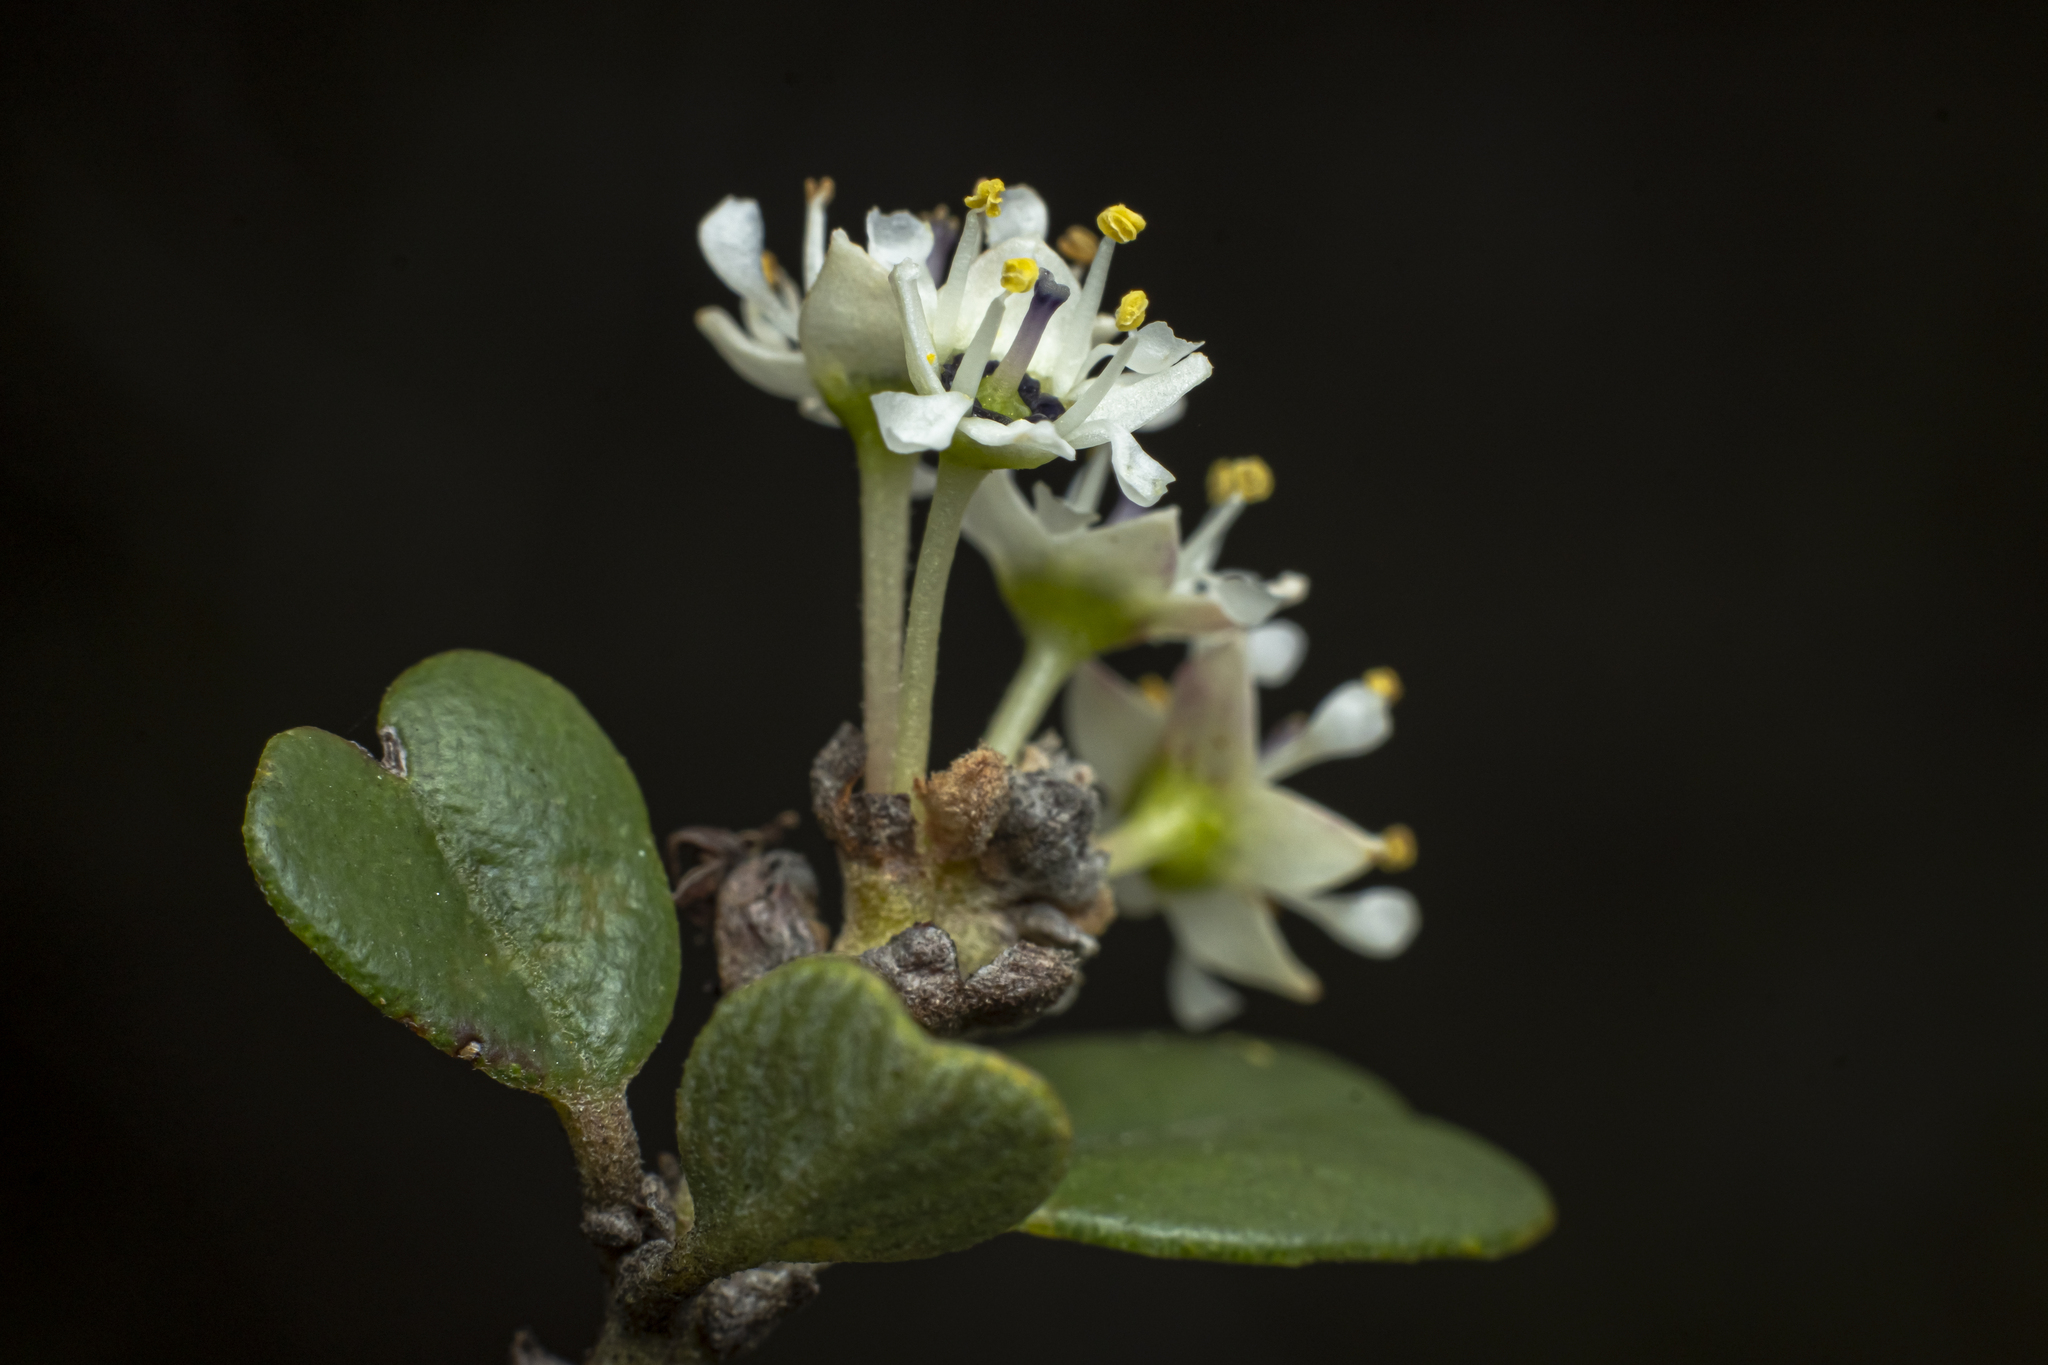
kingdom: Plantae
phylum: Tracheophyta
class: Magnoliopsida
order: Rosales
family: Rhamnaceae
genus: Ceanothus
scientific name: Ceanothus verrucosus
